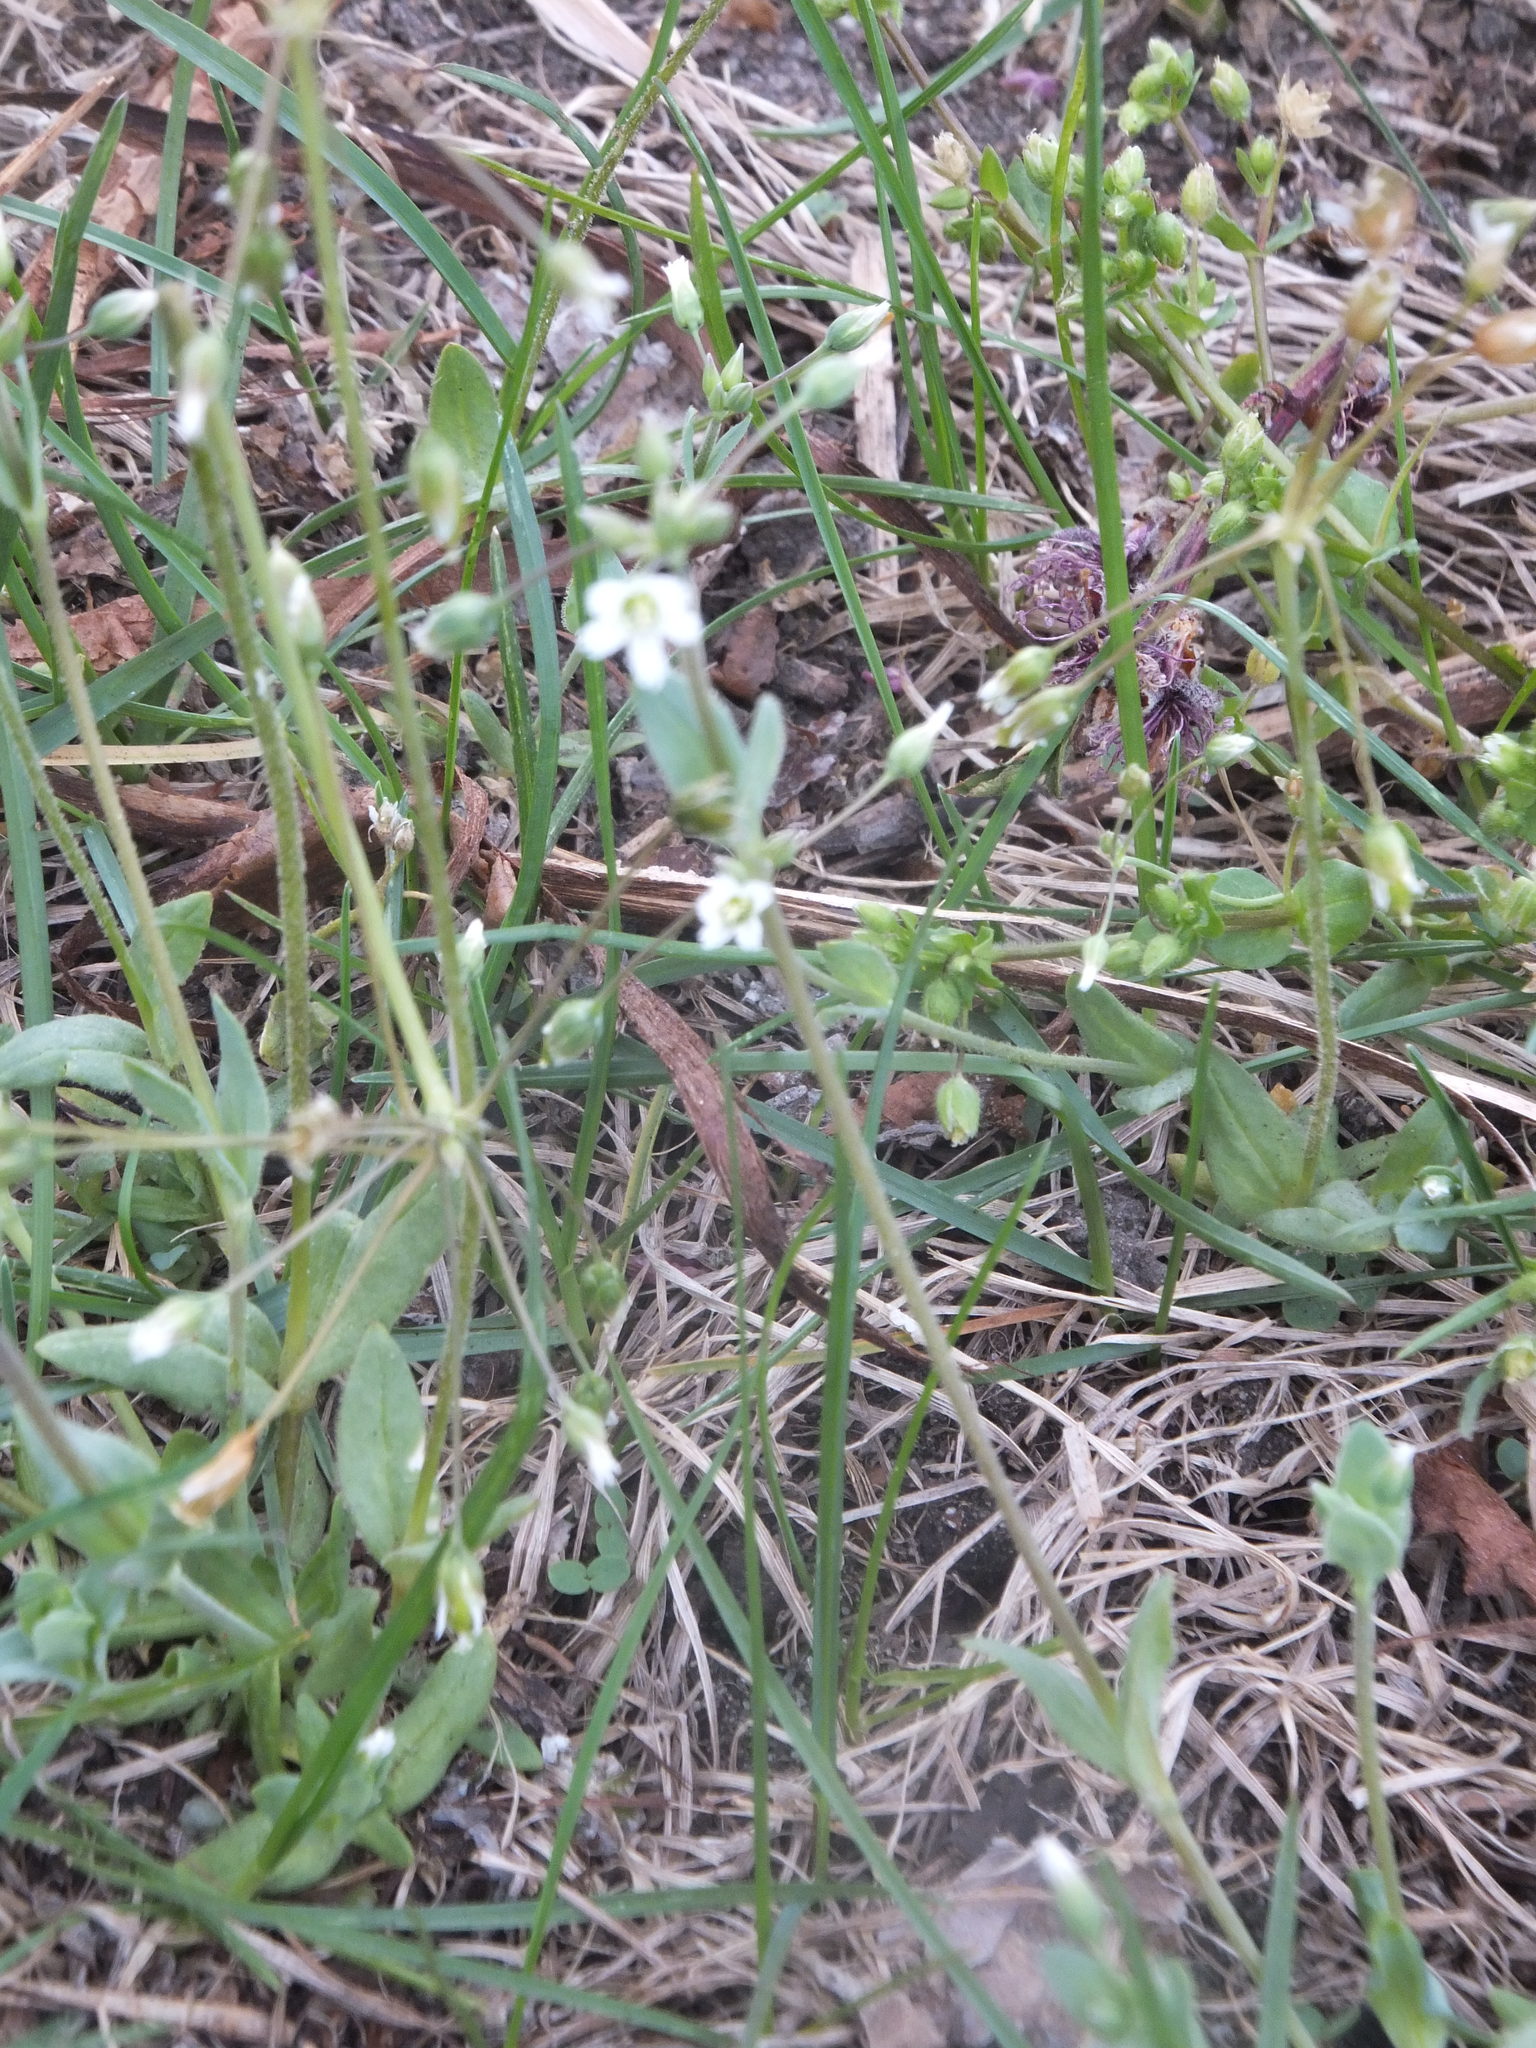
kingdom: Plantae
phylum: Tracheophyta
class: Magnoliopsida
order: Caryophyllales
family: Caryophyllaceae
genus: Holosteum
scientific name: Holosteum umbellatum
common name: Jagged chickweed
